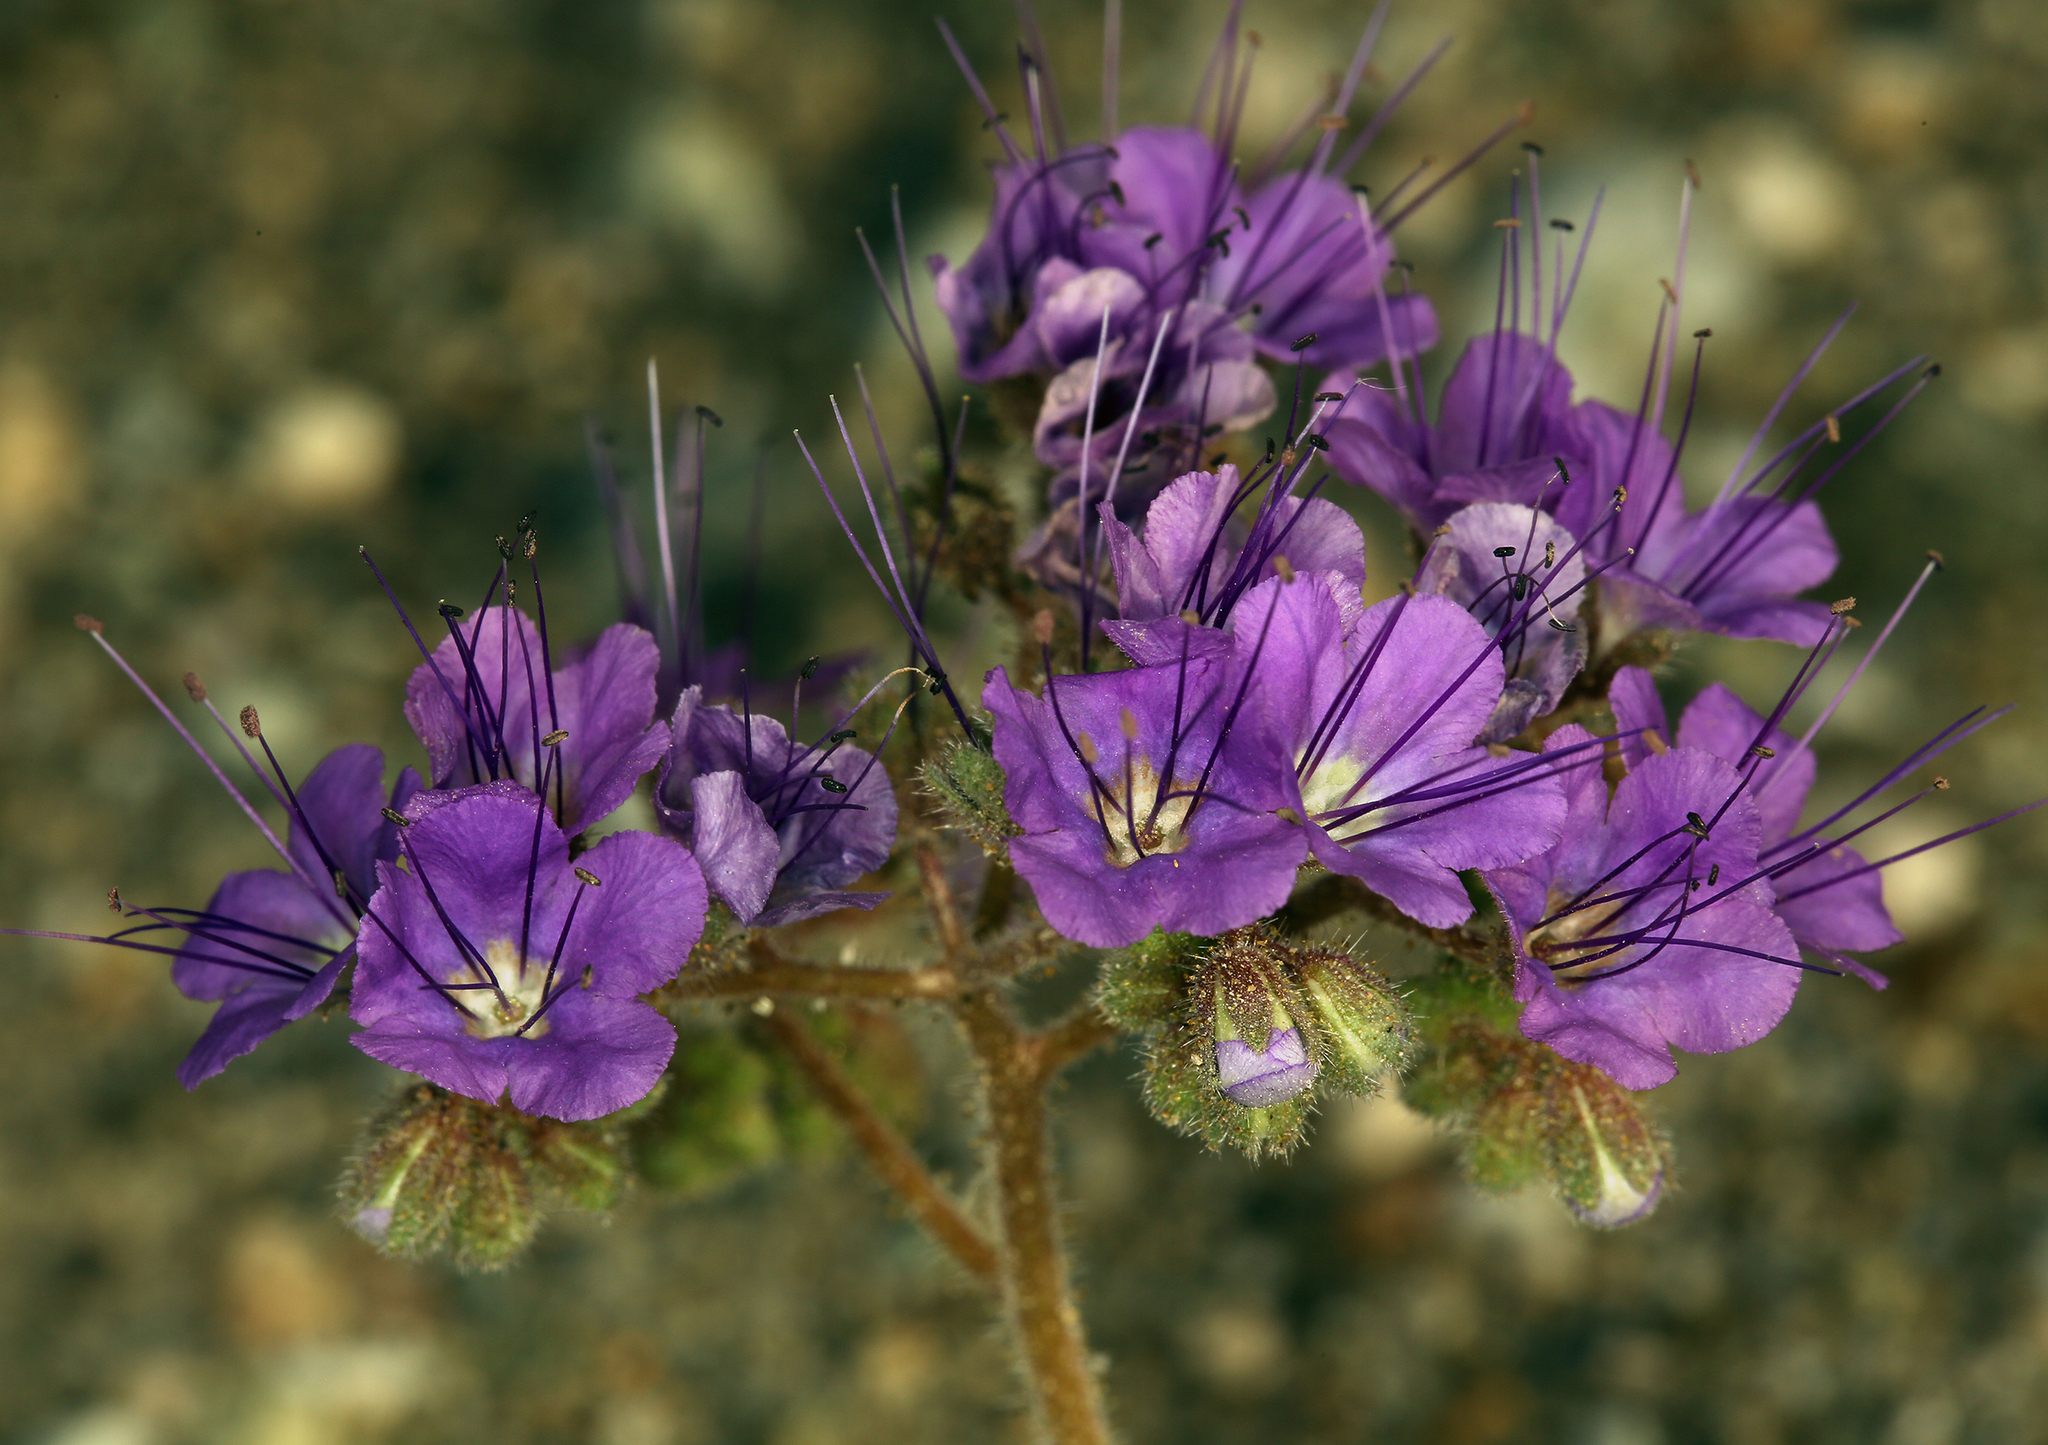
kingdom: Plantae
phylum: Tracheophyta
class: Magnoliopsida
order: Boraginales
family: Hydrophyllaceae
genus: Phacelia
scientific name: Phacelia crenulata
